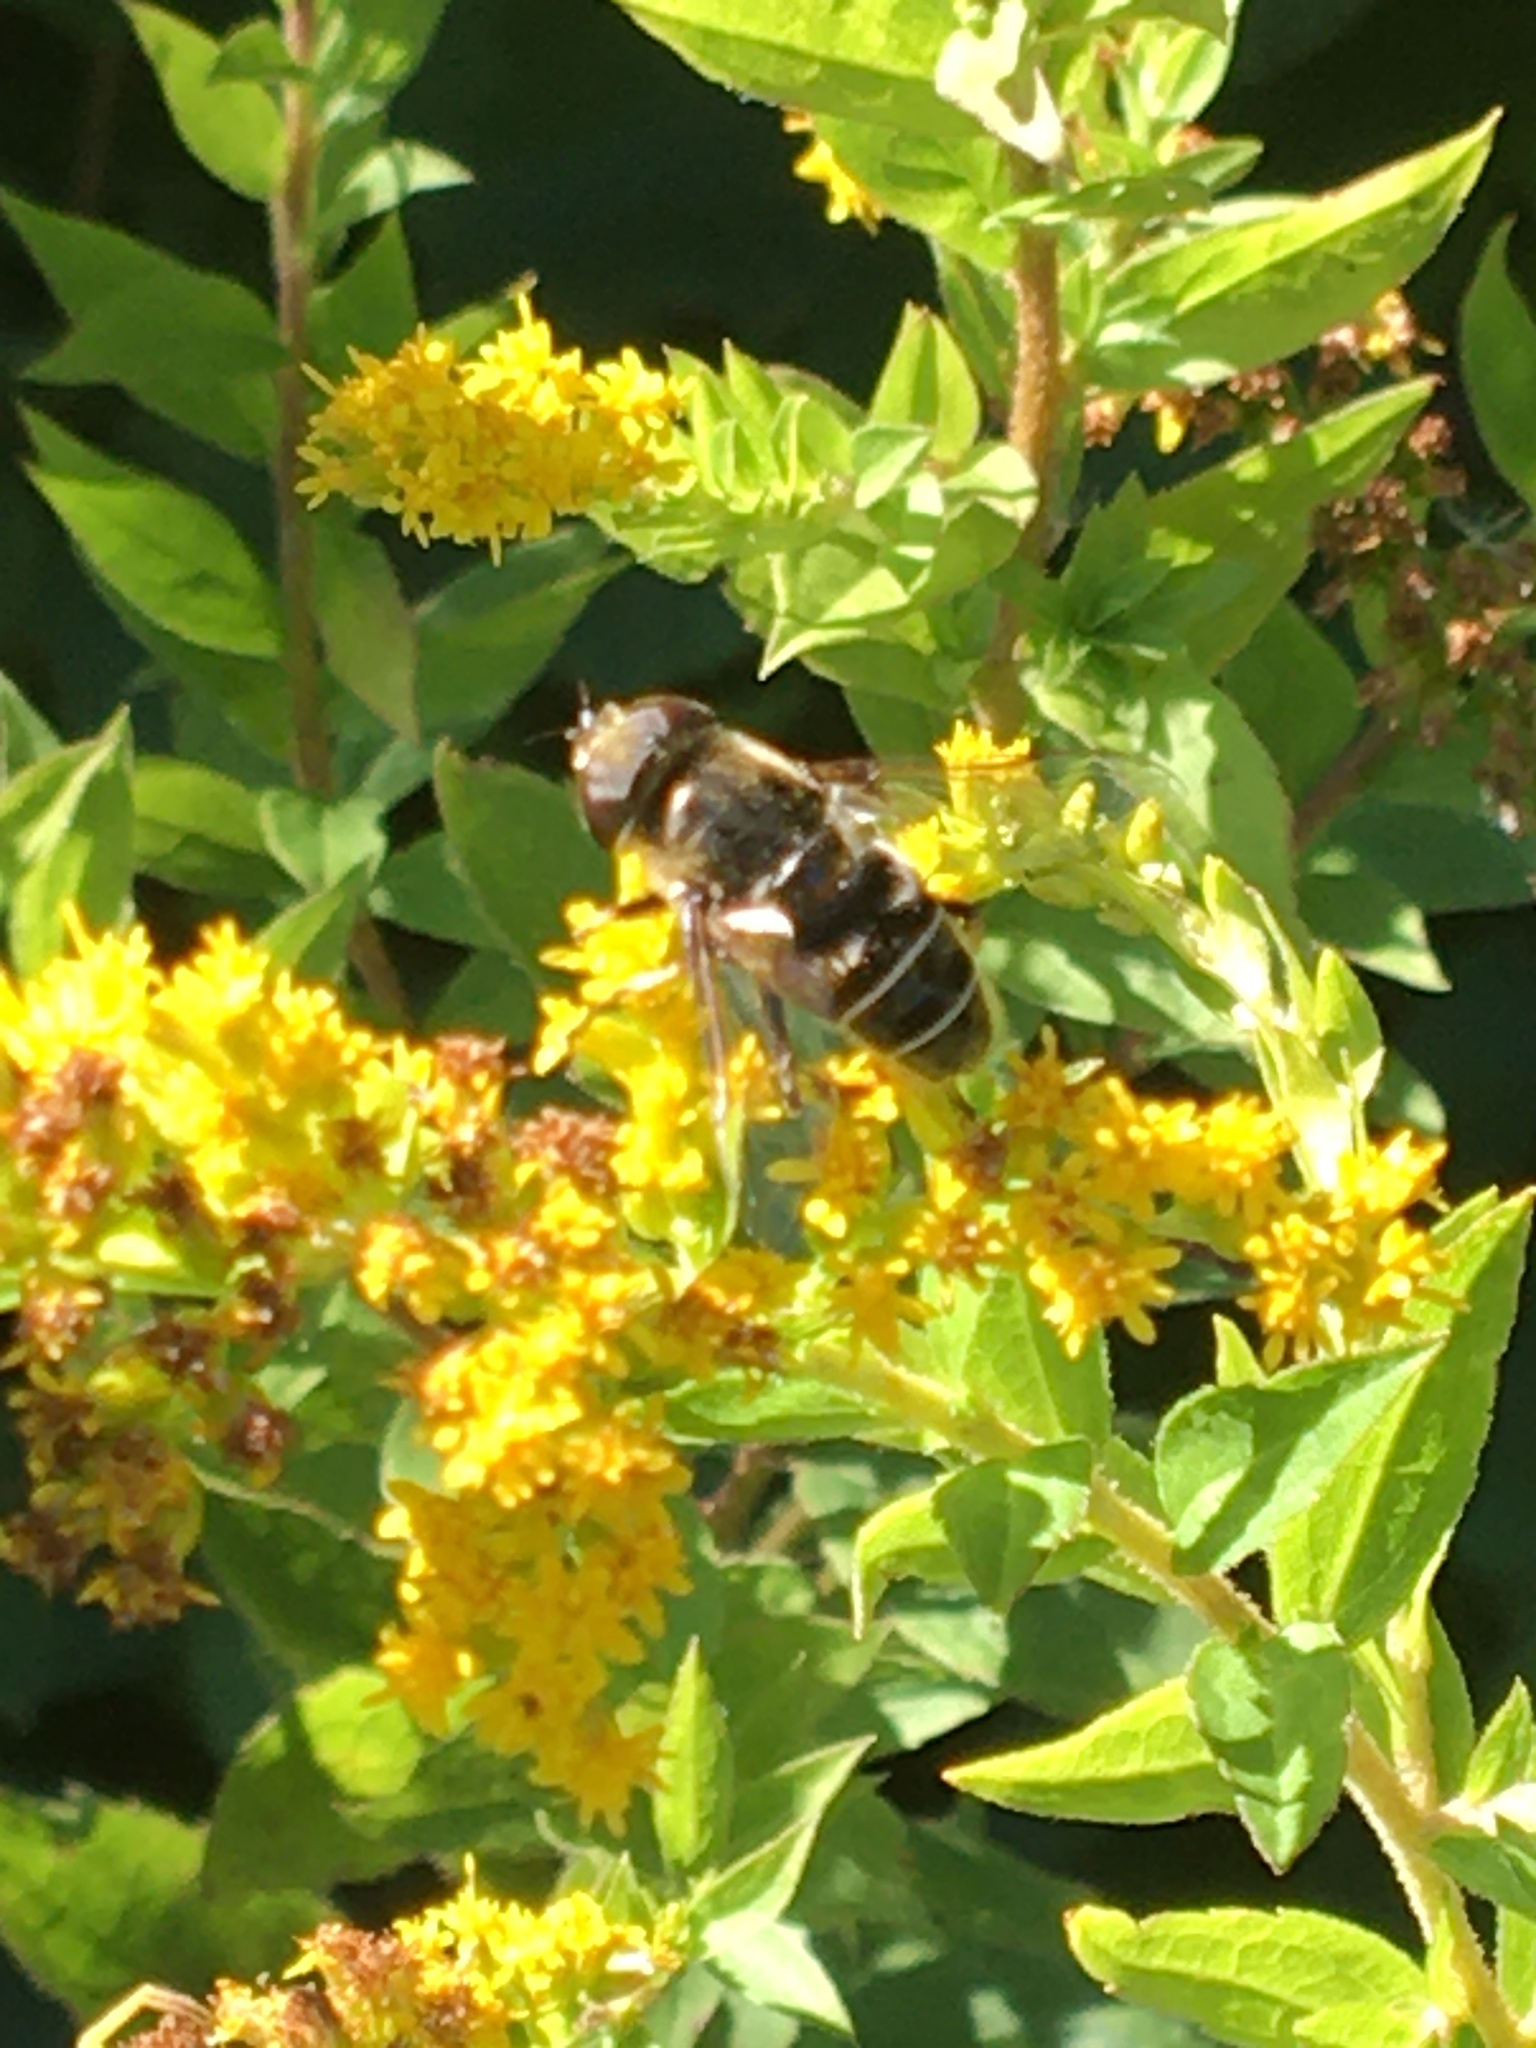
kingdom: Animalia
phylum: Arthropoda
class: Insecta
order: Diptera
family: Syrphidae
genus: Eristalis
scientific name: Eristalis dimidiata
